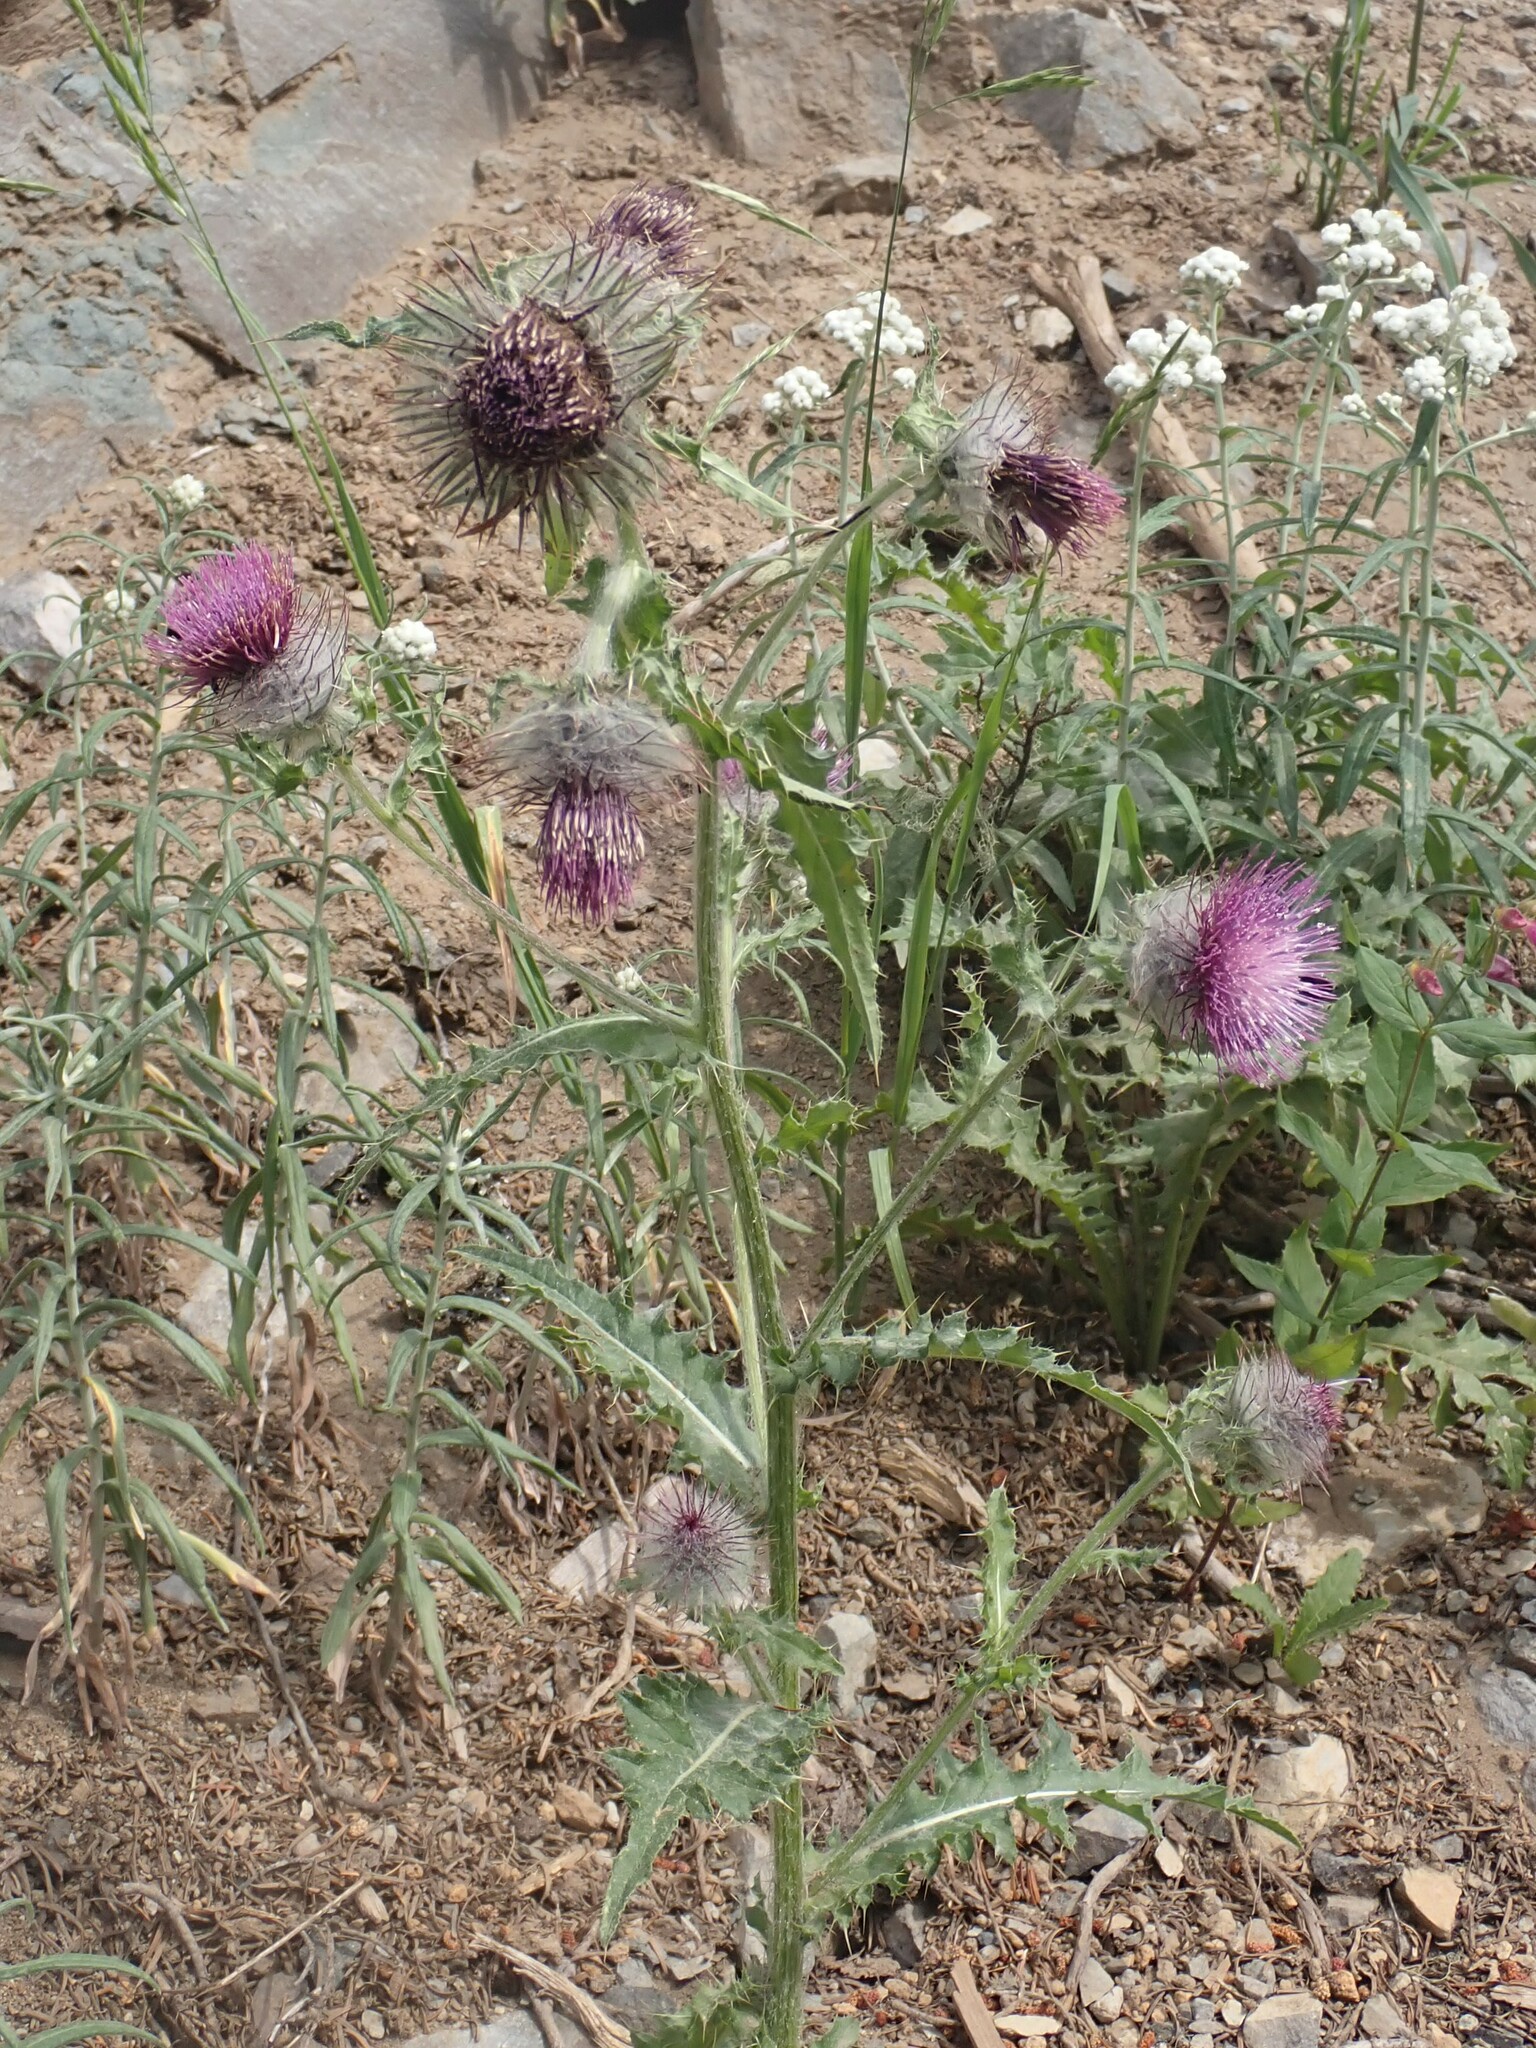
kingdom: Plantae
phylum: Tracheophyta
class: Magnoliopsida
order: Asterales
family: Asteraceae
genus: Cirsium
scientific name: Cirsium edule
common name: Indian thistle
